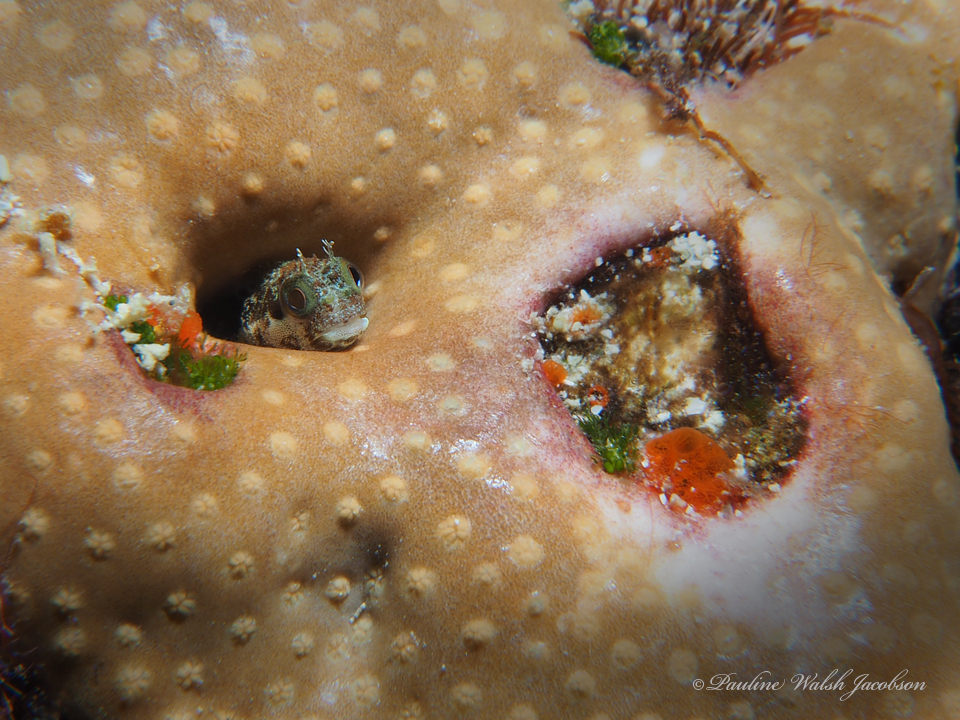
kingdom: Animalia
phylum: Chordata
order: Perciformes
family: Chaenopsidae
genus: Acanthemblemaria
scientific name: Acanthemblemaria maria
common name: Secretary blenny
